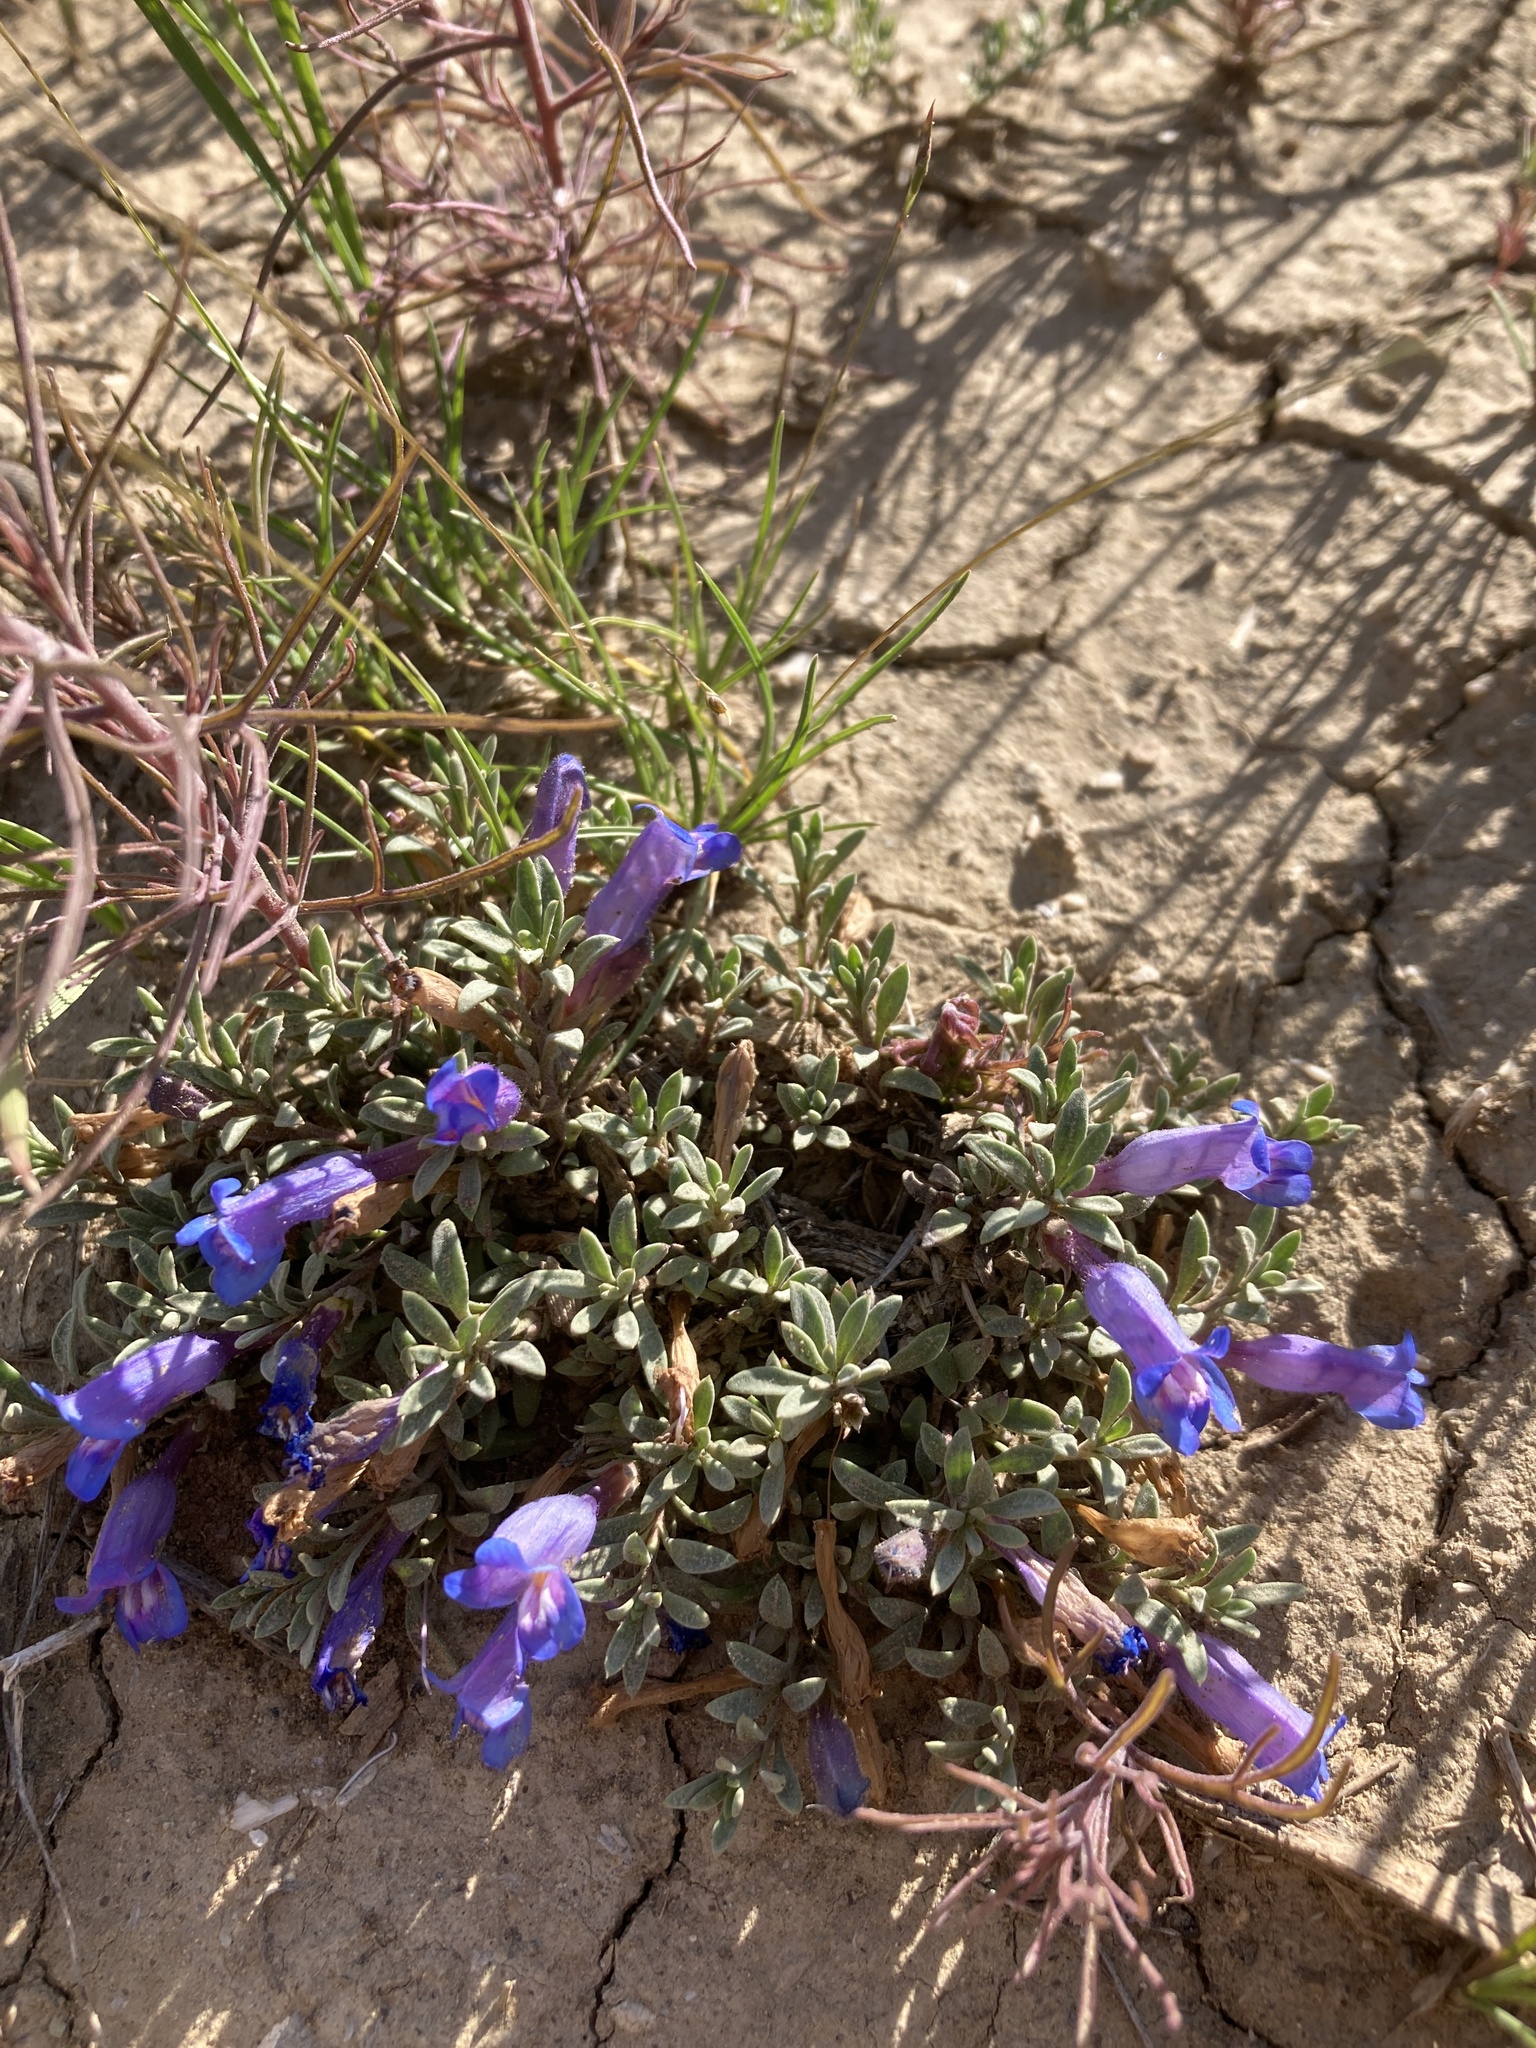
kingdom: Plantae
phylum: Tracheophyta
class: Magnoliopsida
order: Lamiales
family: Plantaginaceae
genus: Penstemon
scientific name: Penstemon caespitosus
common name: Mat penstemon
